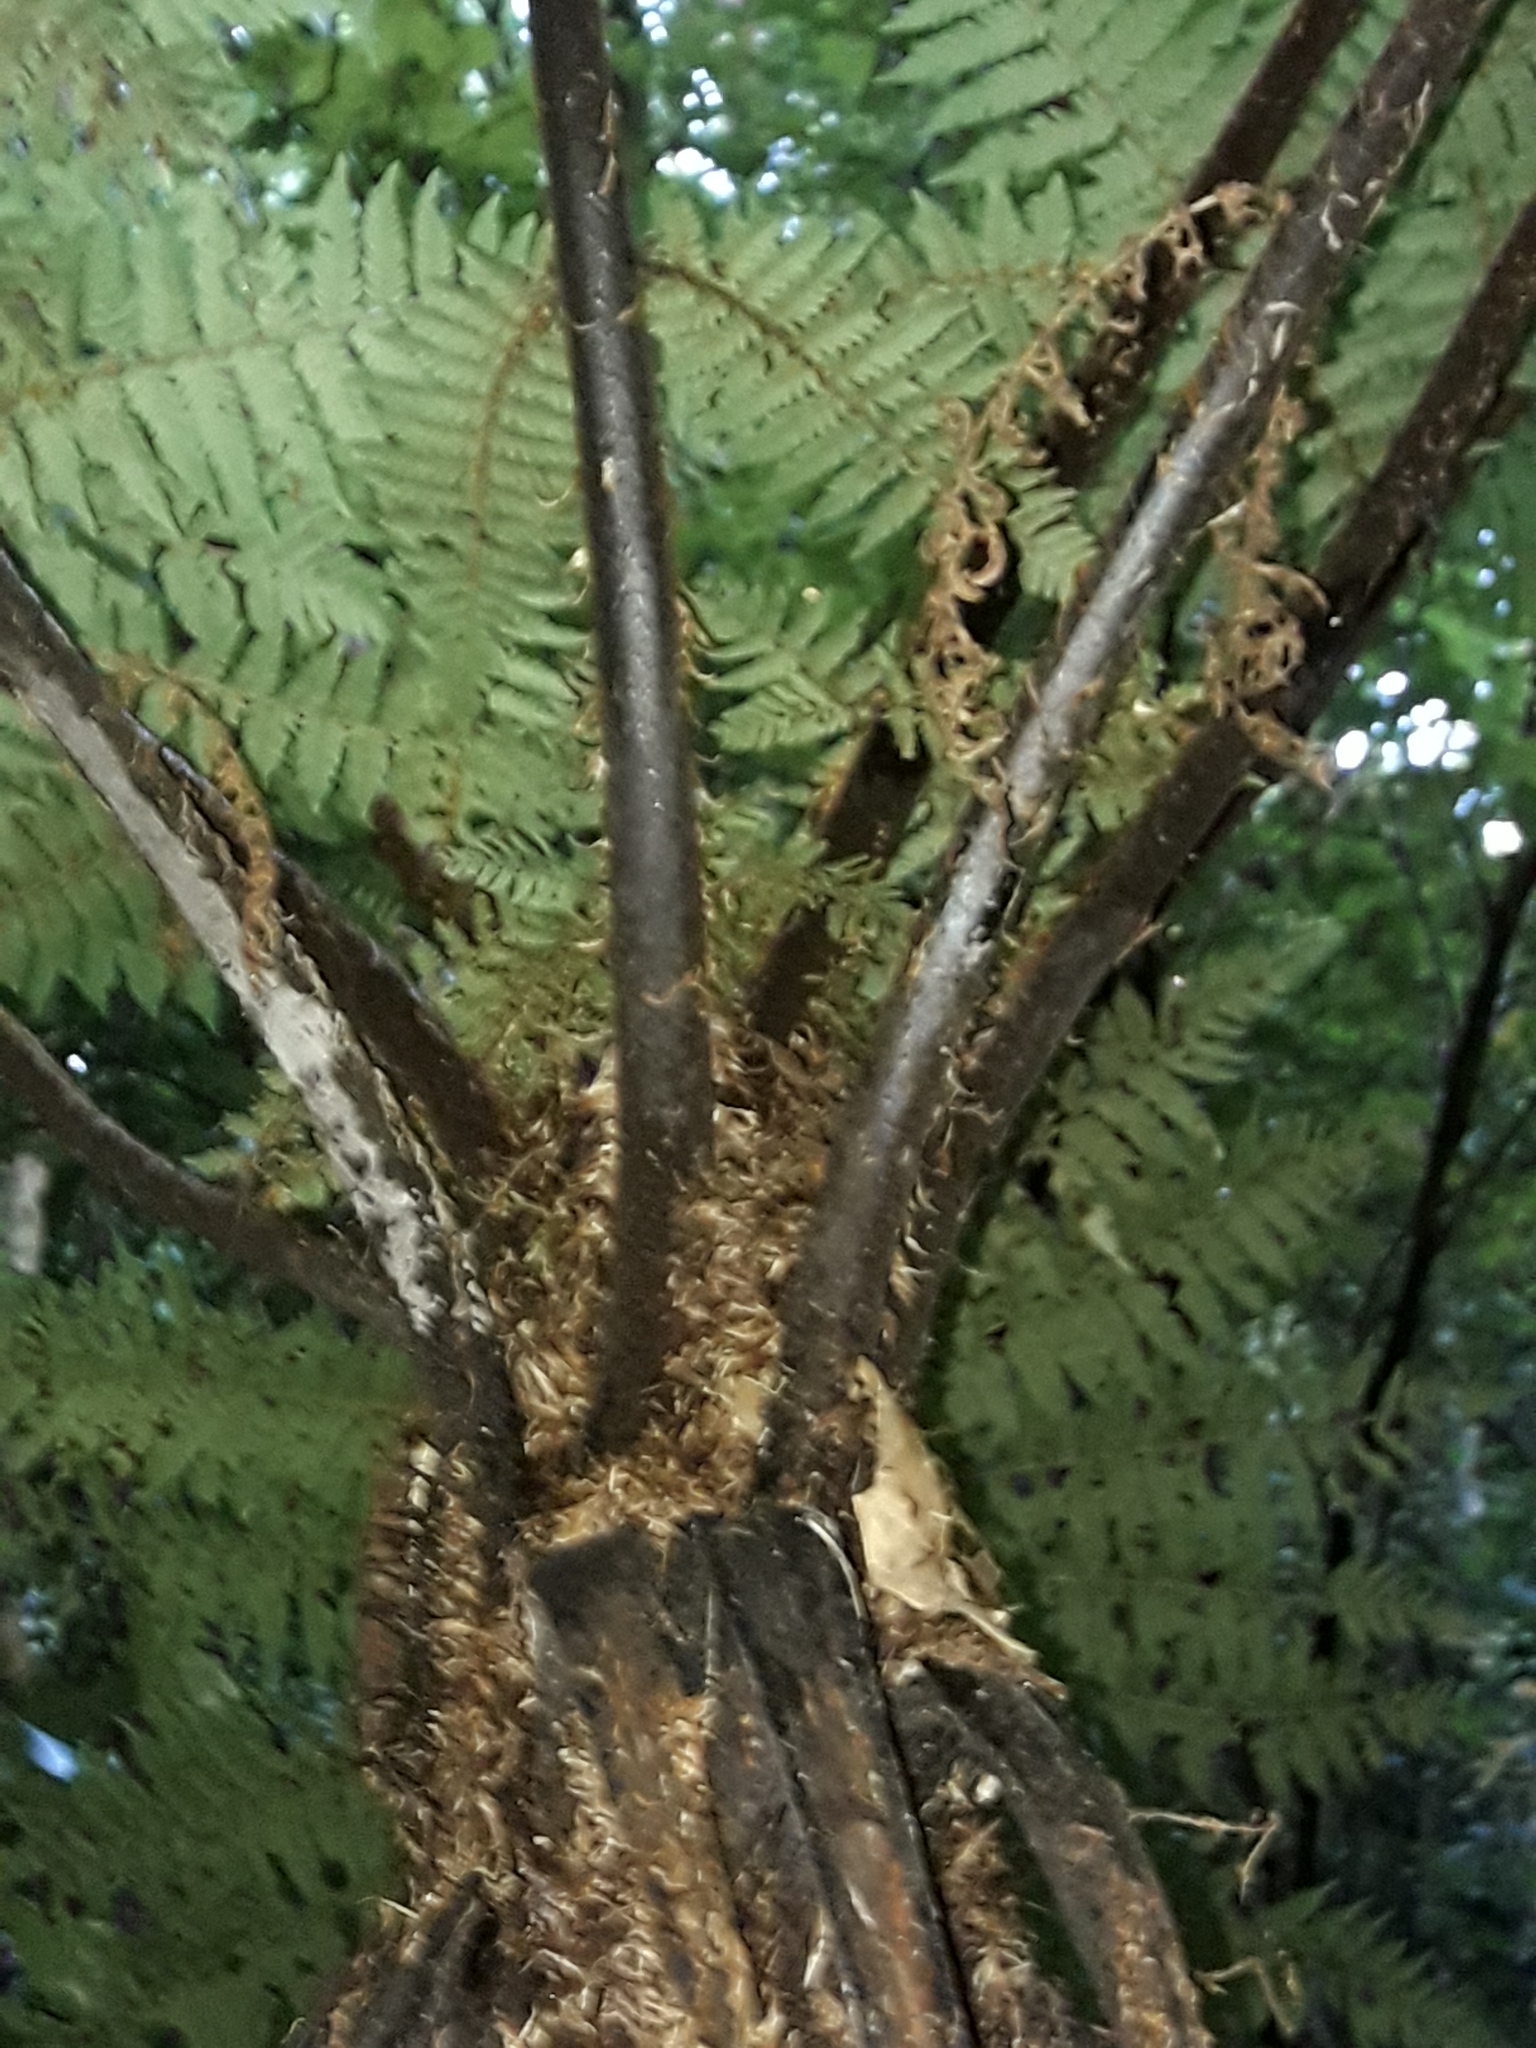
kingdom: Plantae
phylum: Tracheophyta
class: Polypodiopsida
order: Cyatheales
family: Cyatheaceae
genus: Cyathea
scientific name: Cyathea cunninghamii
